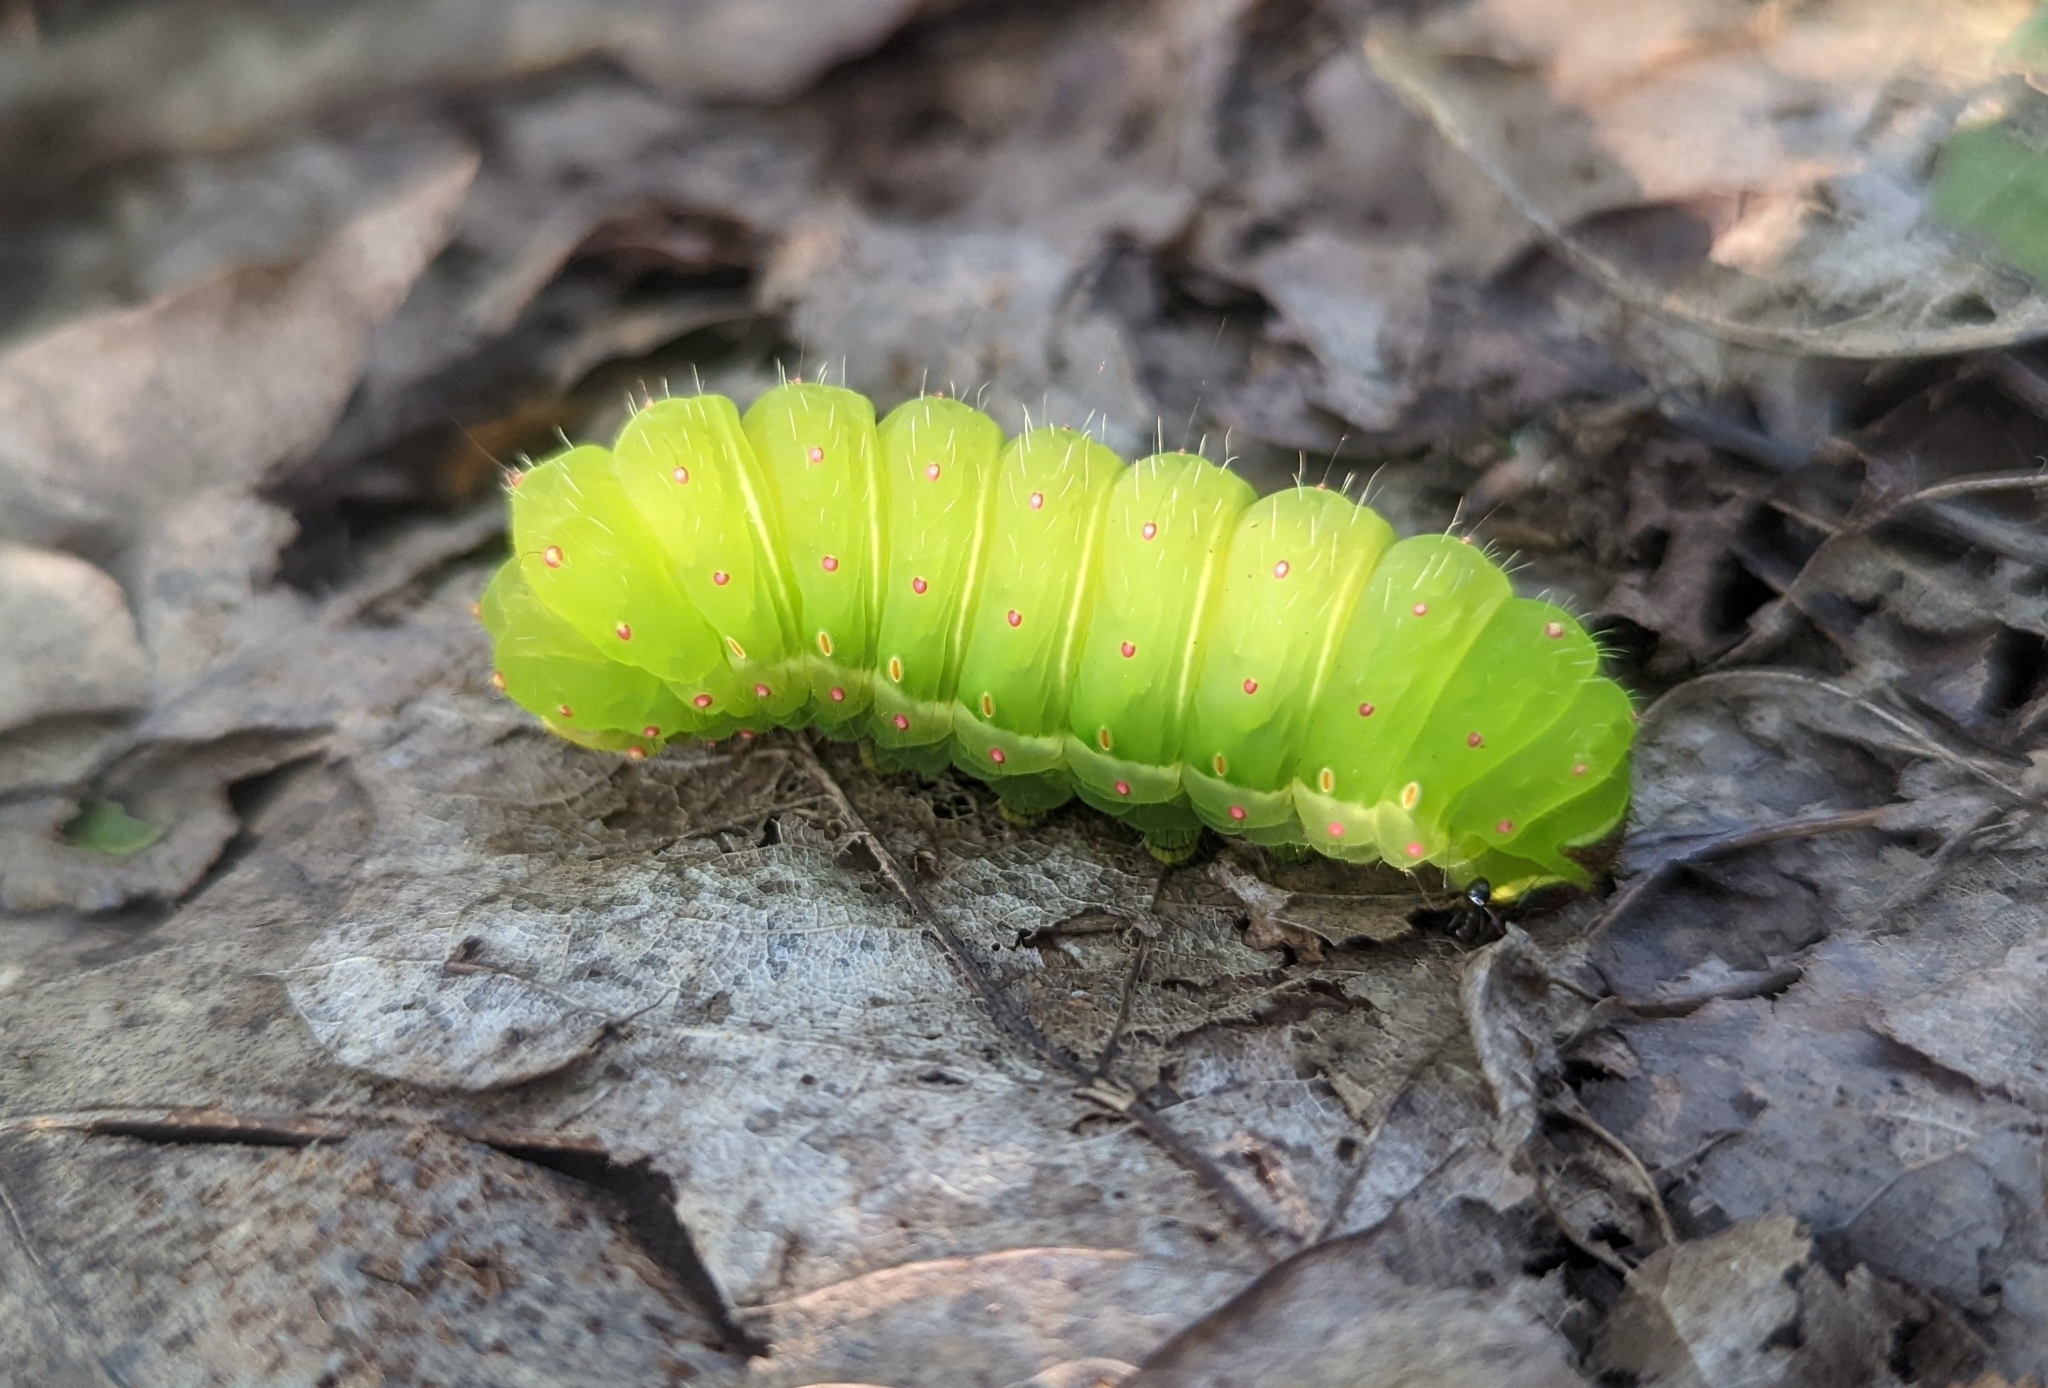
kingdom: Animalia
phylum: Arthropoda
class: Insecta
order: Lepidoptera
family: Saturniidae
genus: Actias
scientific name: Actias luna
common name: Luna moth
